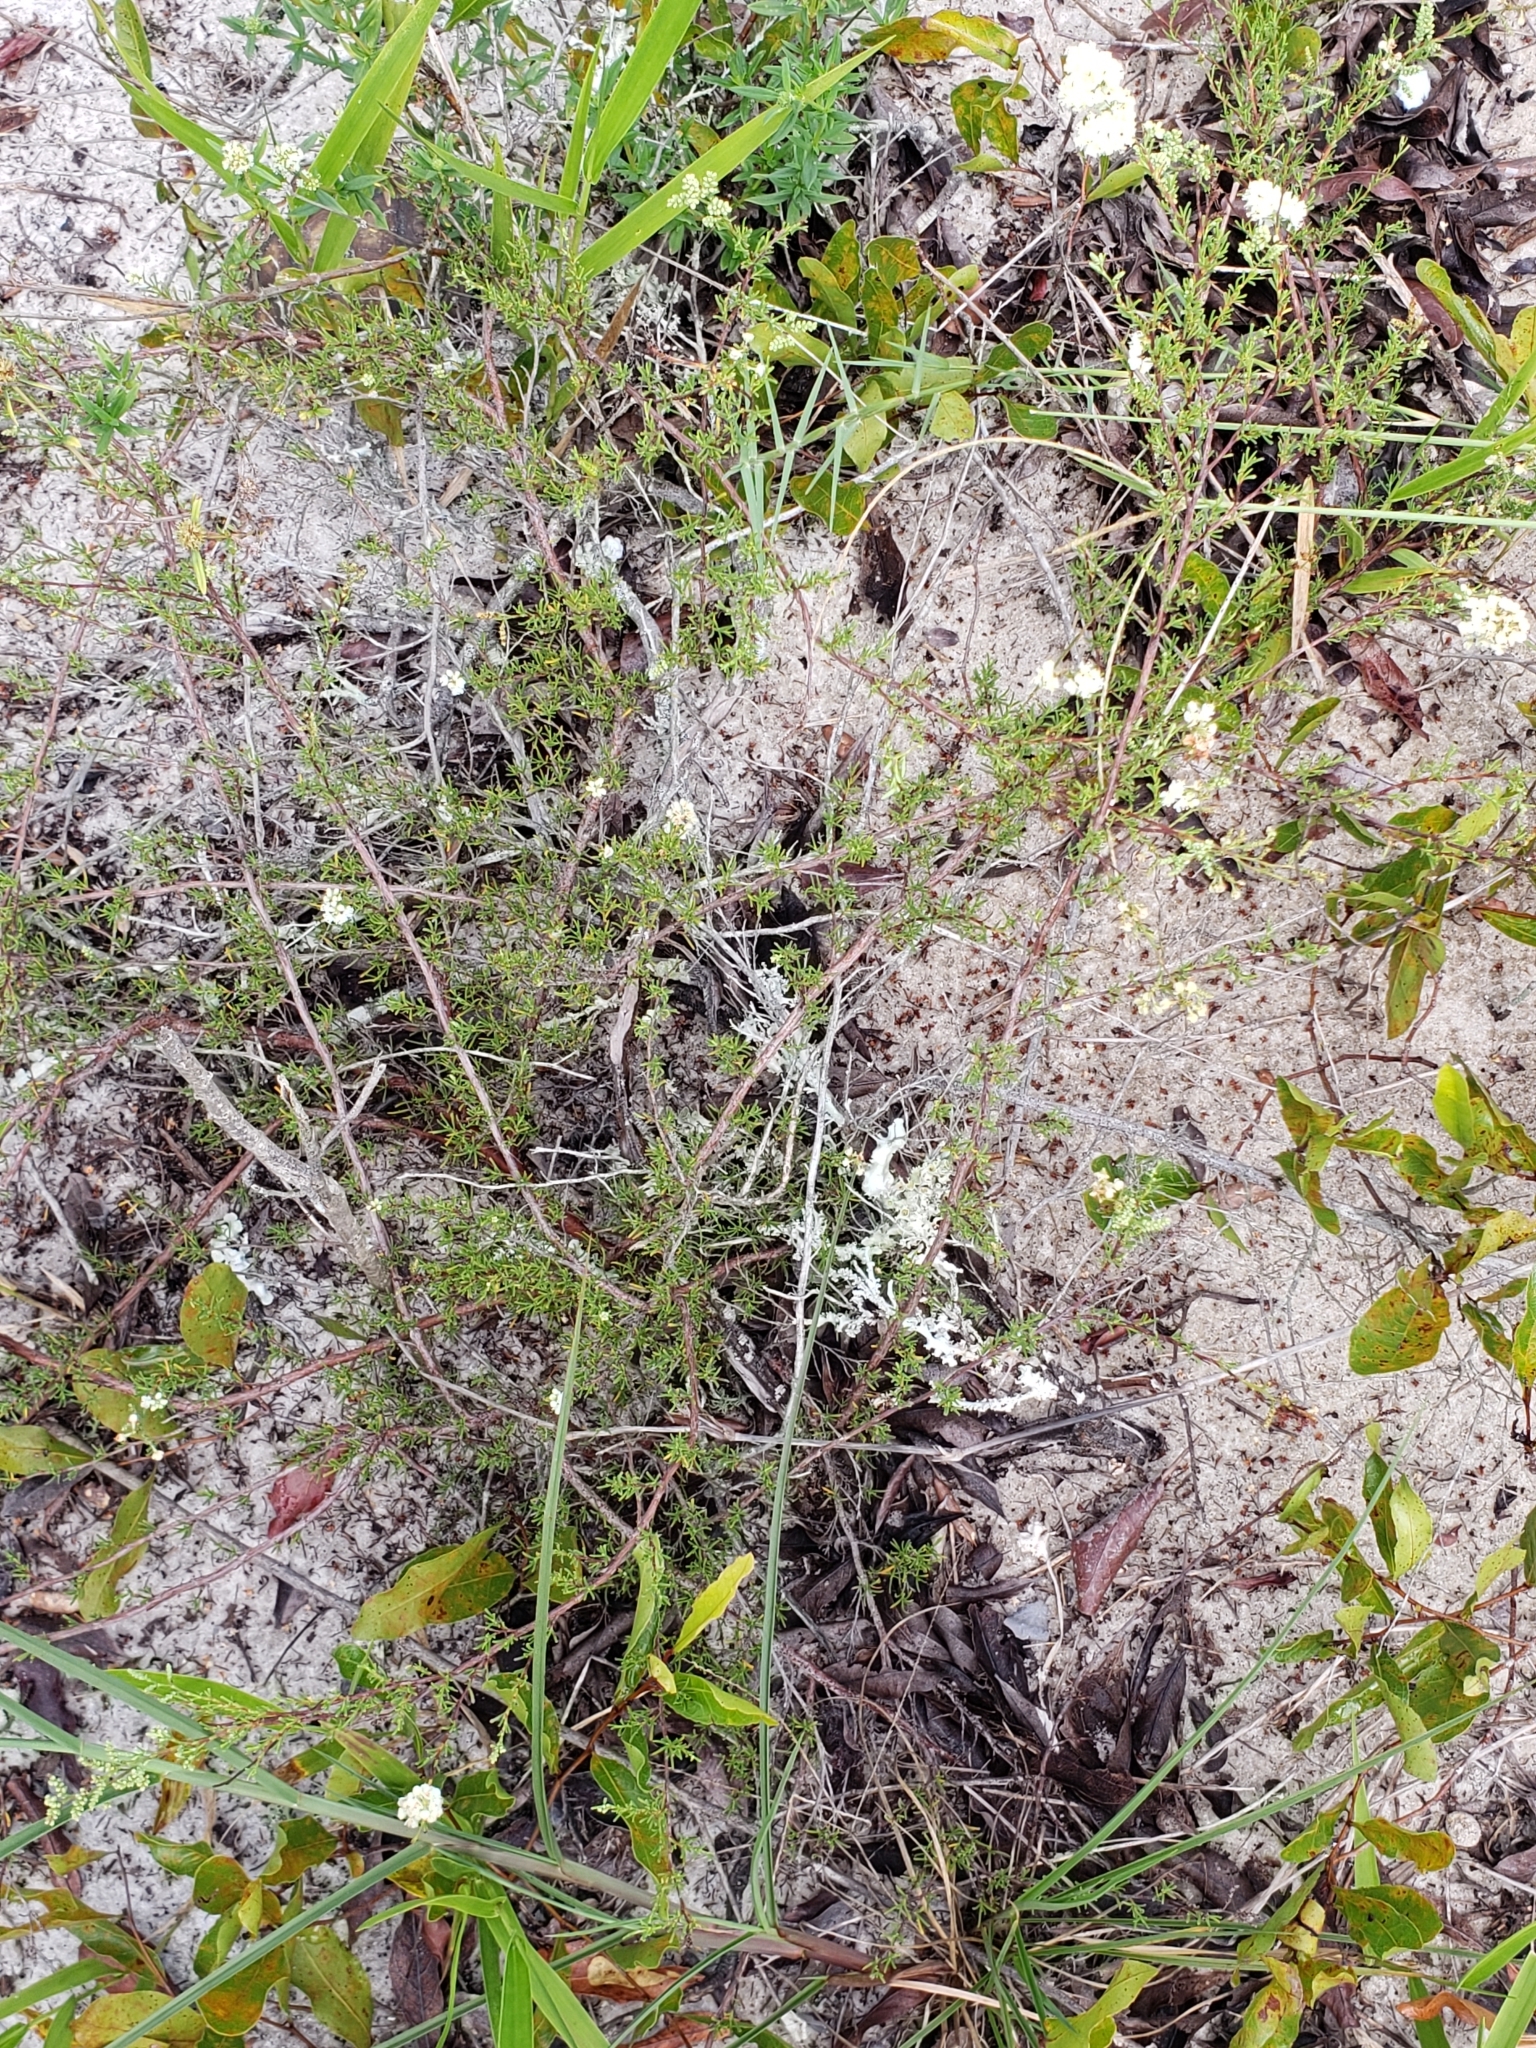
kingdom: Plantae
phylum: Tracheophyta
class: Magnoliopsida
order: Caryophyllales
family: Polygonaceae
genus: Polygonella
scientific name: Polygonella myriophylla
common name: Sandlace
